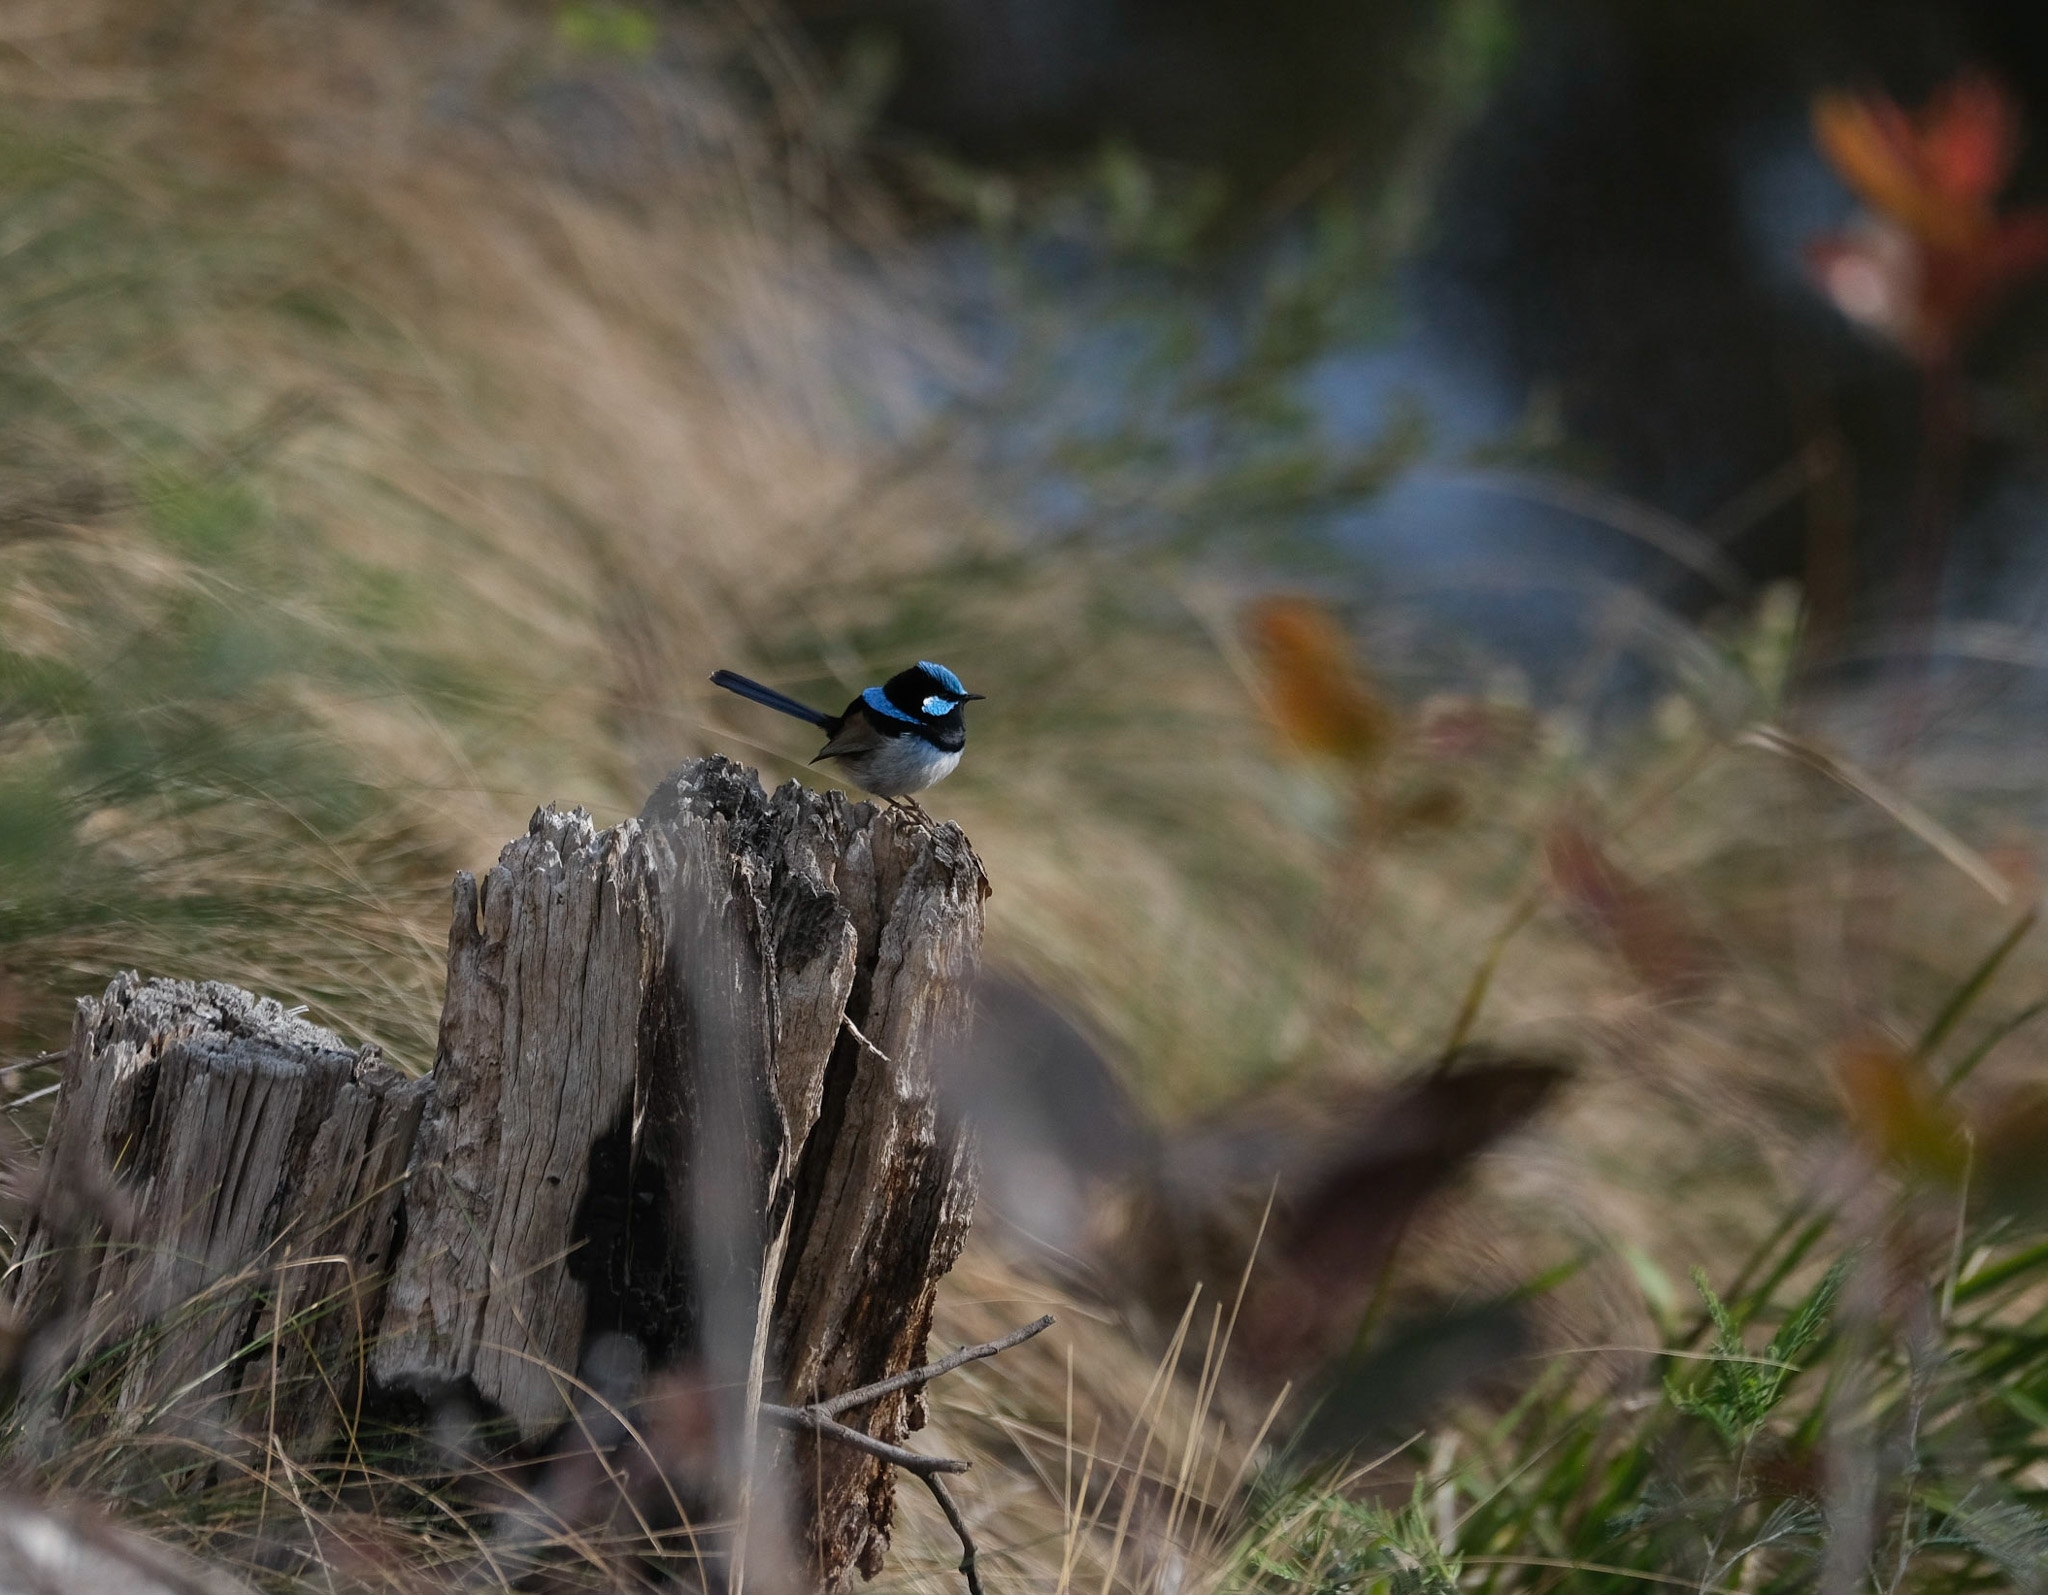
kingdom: Animalia
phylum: Chordata
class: Aves
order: Passeriformes
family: Maluridae
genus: Malurus
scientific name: Malurus cyaneus
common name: Superb fairywren
